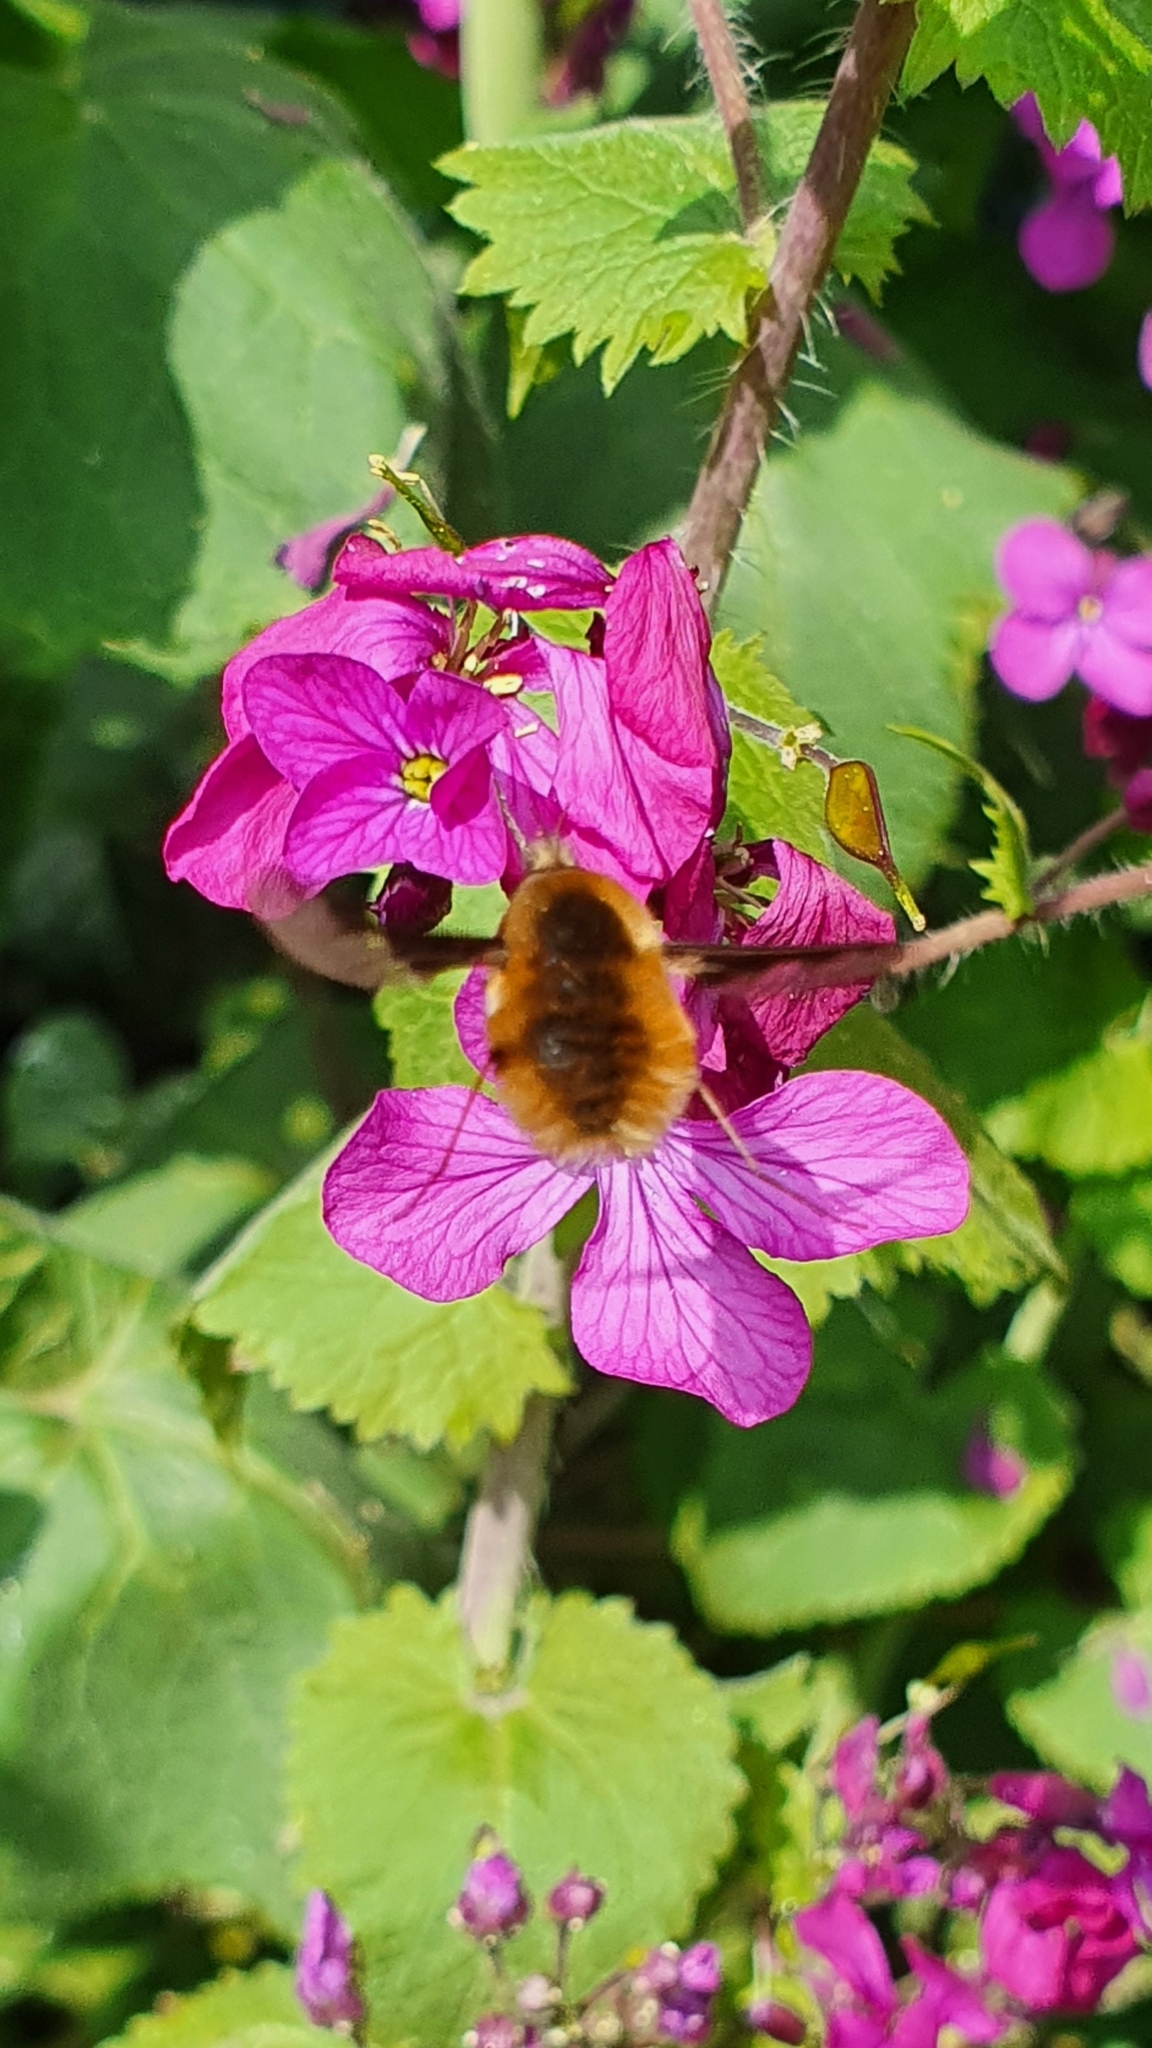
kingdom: Animalia
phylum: Arthropoda
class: Insecta
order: Diptera
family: Bombyliidae
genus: Bombylius
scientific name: Bombylius major
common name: Bee fly
